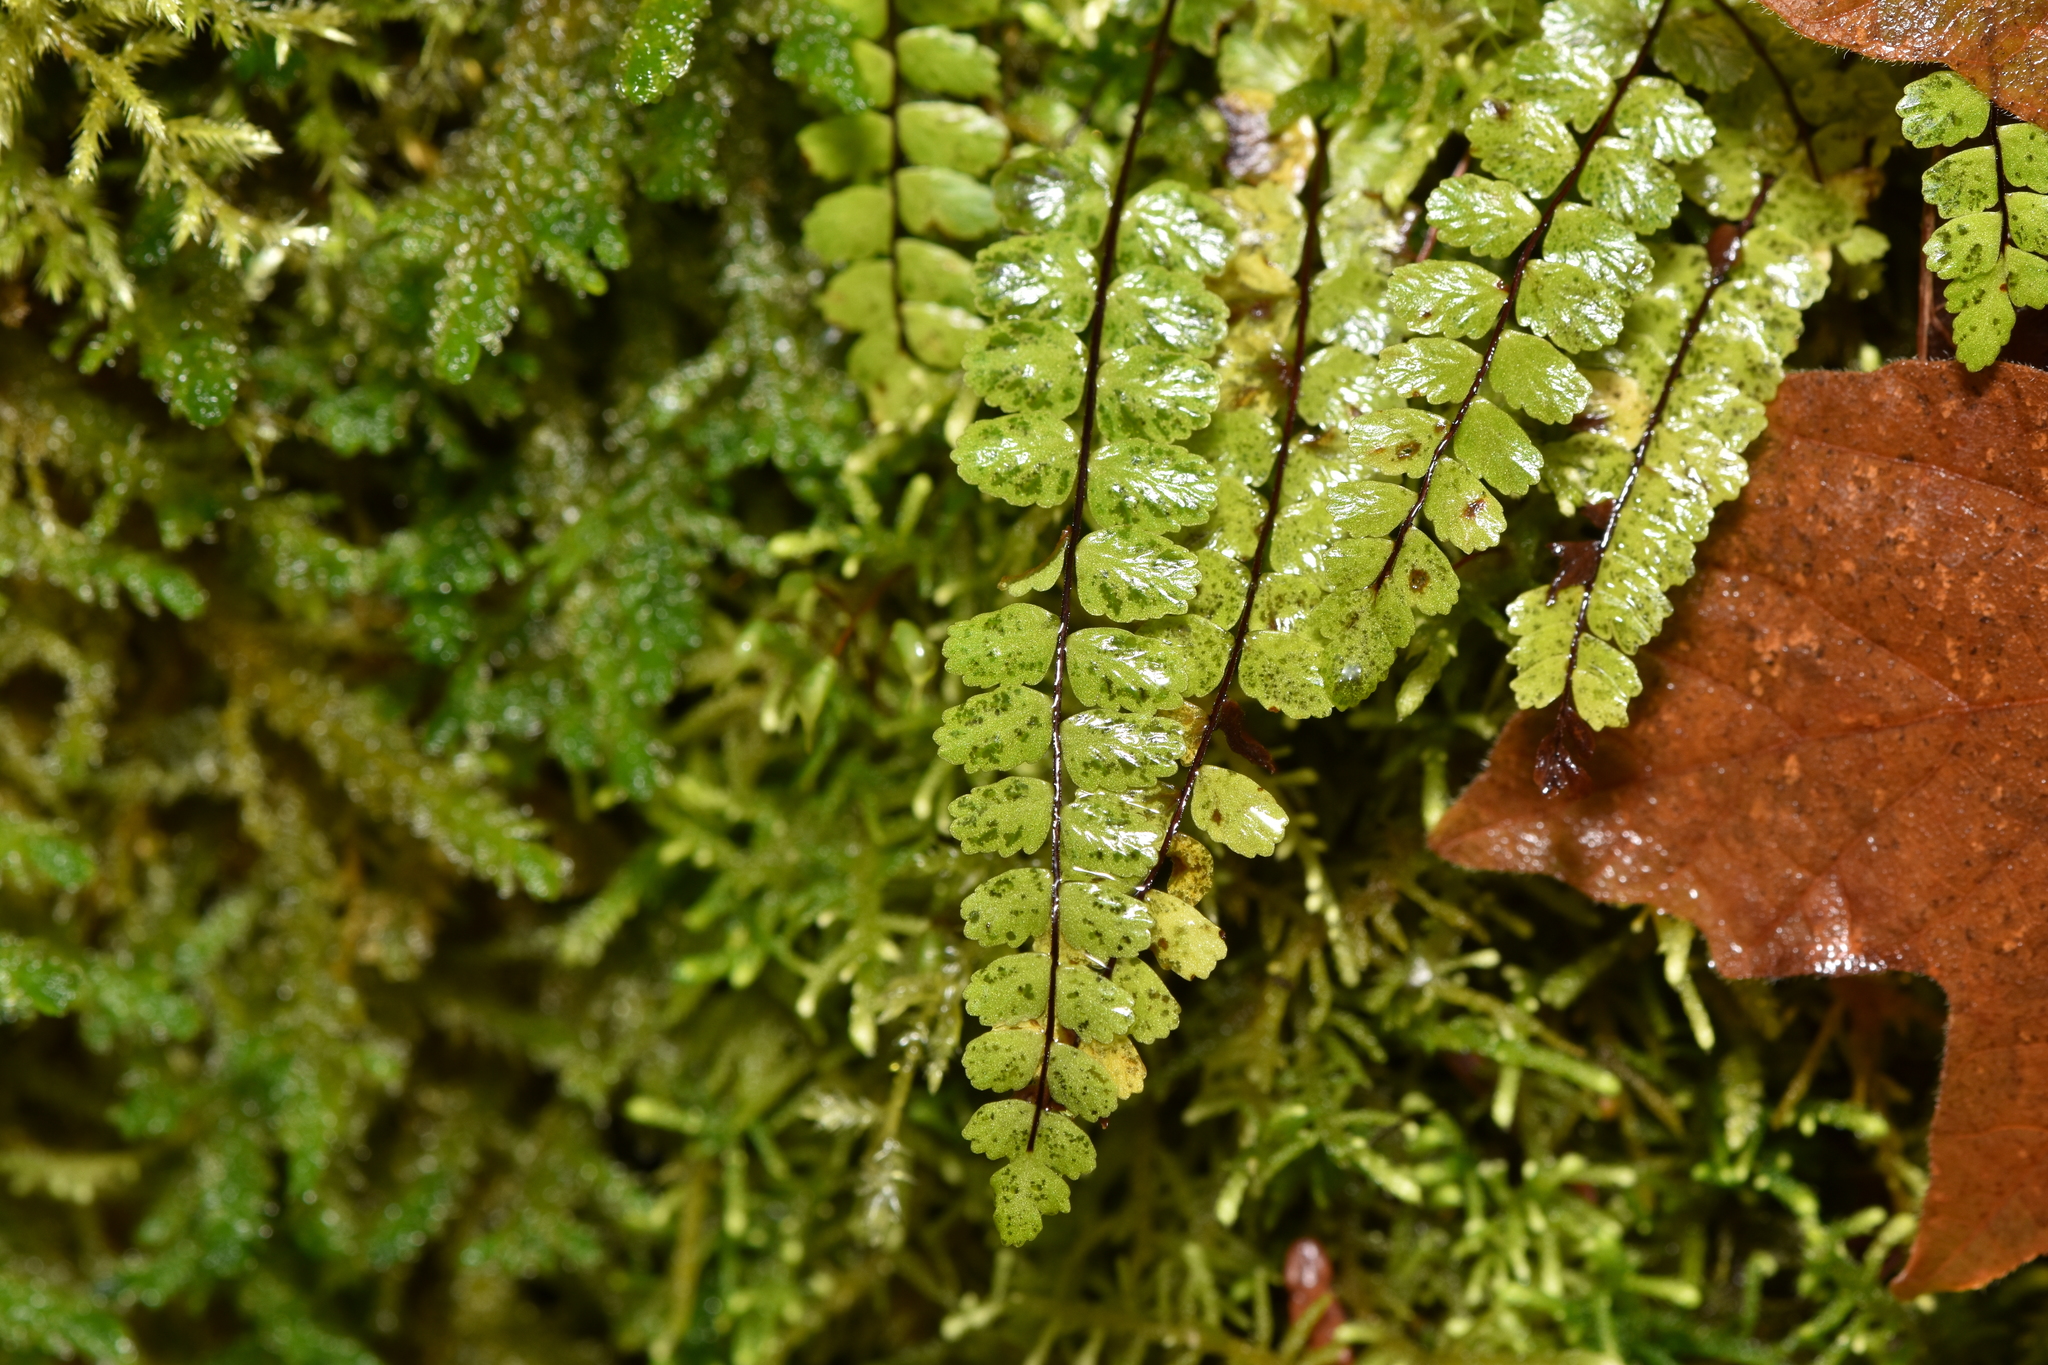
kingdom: Plantae
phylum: Tracheophyta
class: Polypodiopsida
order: Polypodiales
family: Aspleniaceae
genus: Asplenium
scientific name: Asplenium trichomanes
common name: Maidenhair spleenwort
